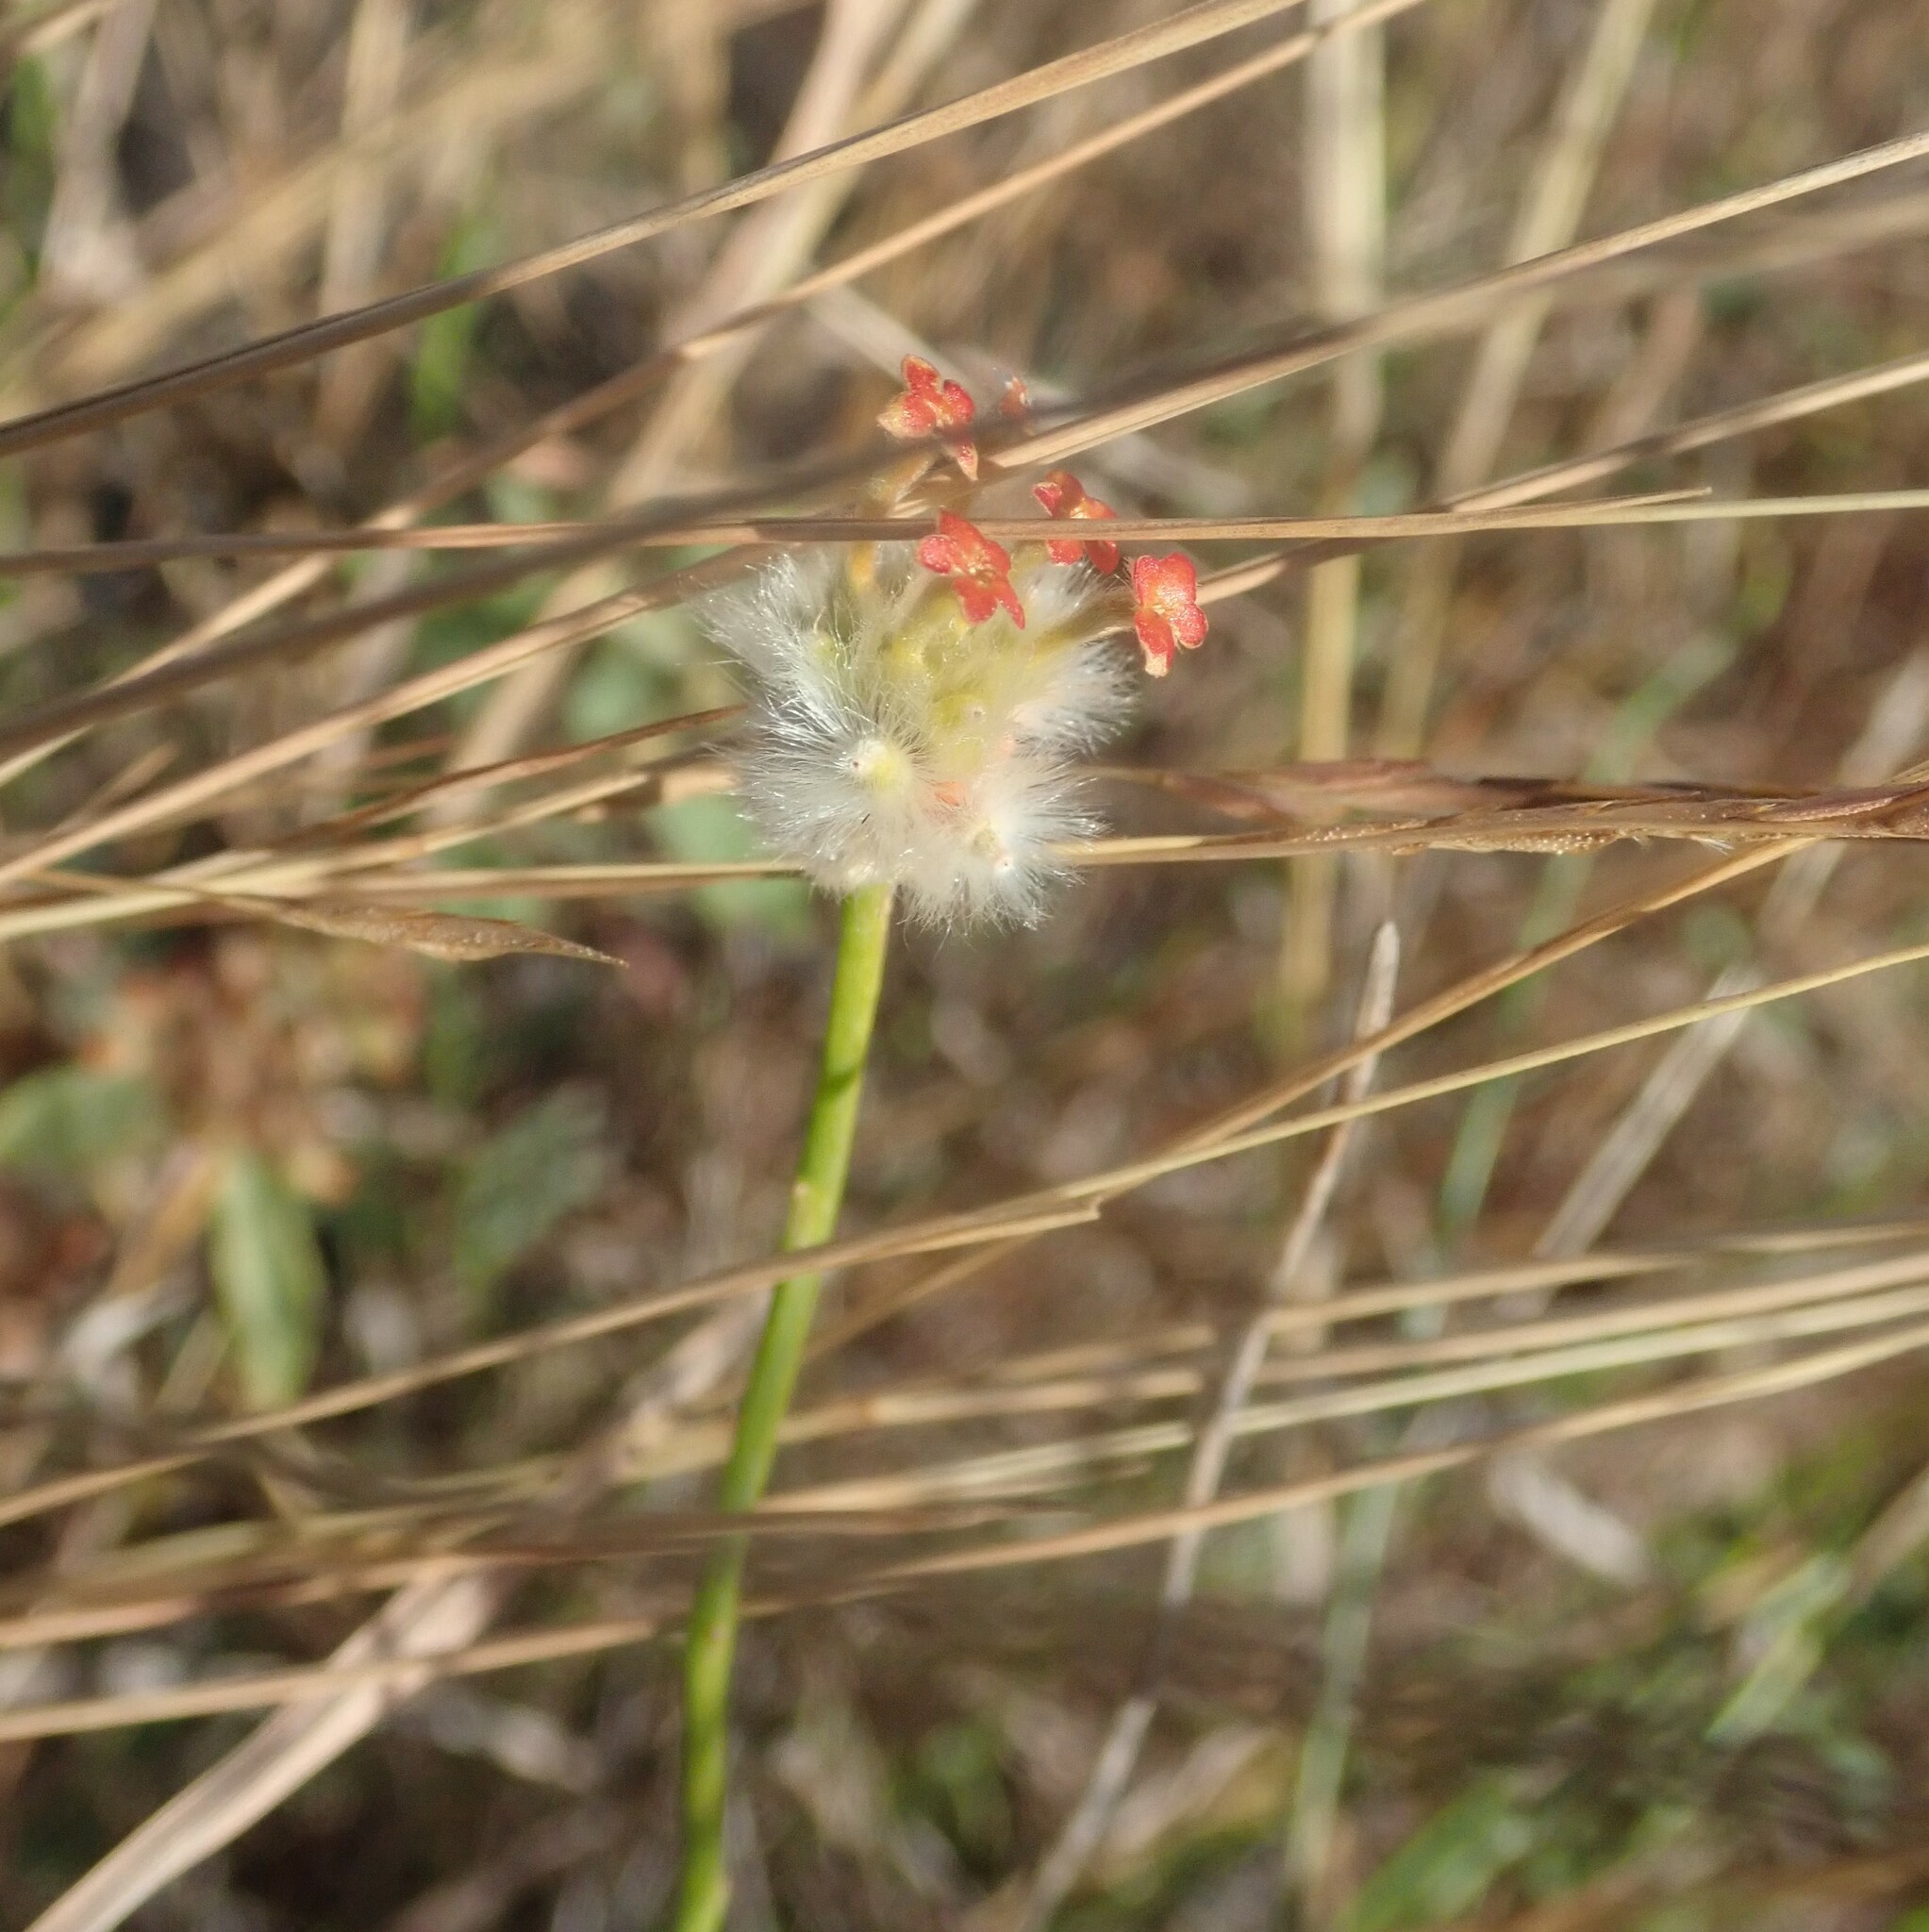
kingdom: Plantae
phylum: Tracheophyta
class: Magnoliopsida
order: Malvales
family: Thymelaeaceae
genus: Gnidia
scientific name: Gnidia rubescens
